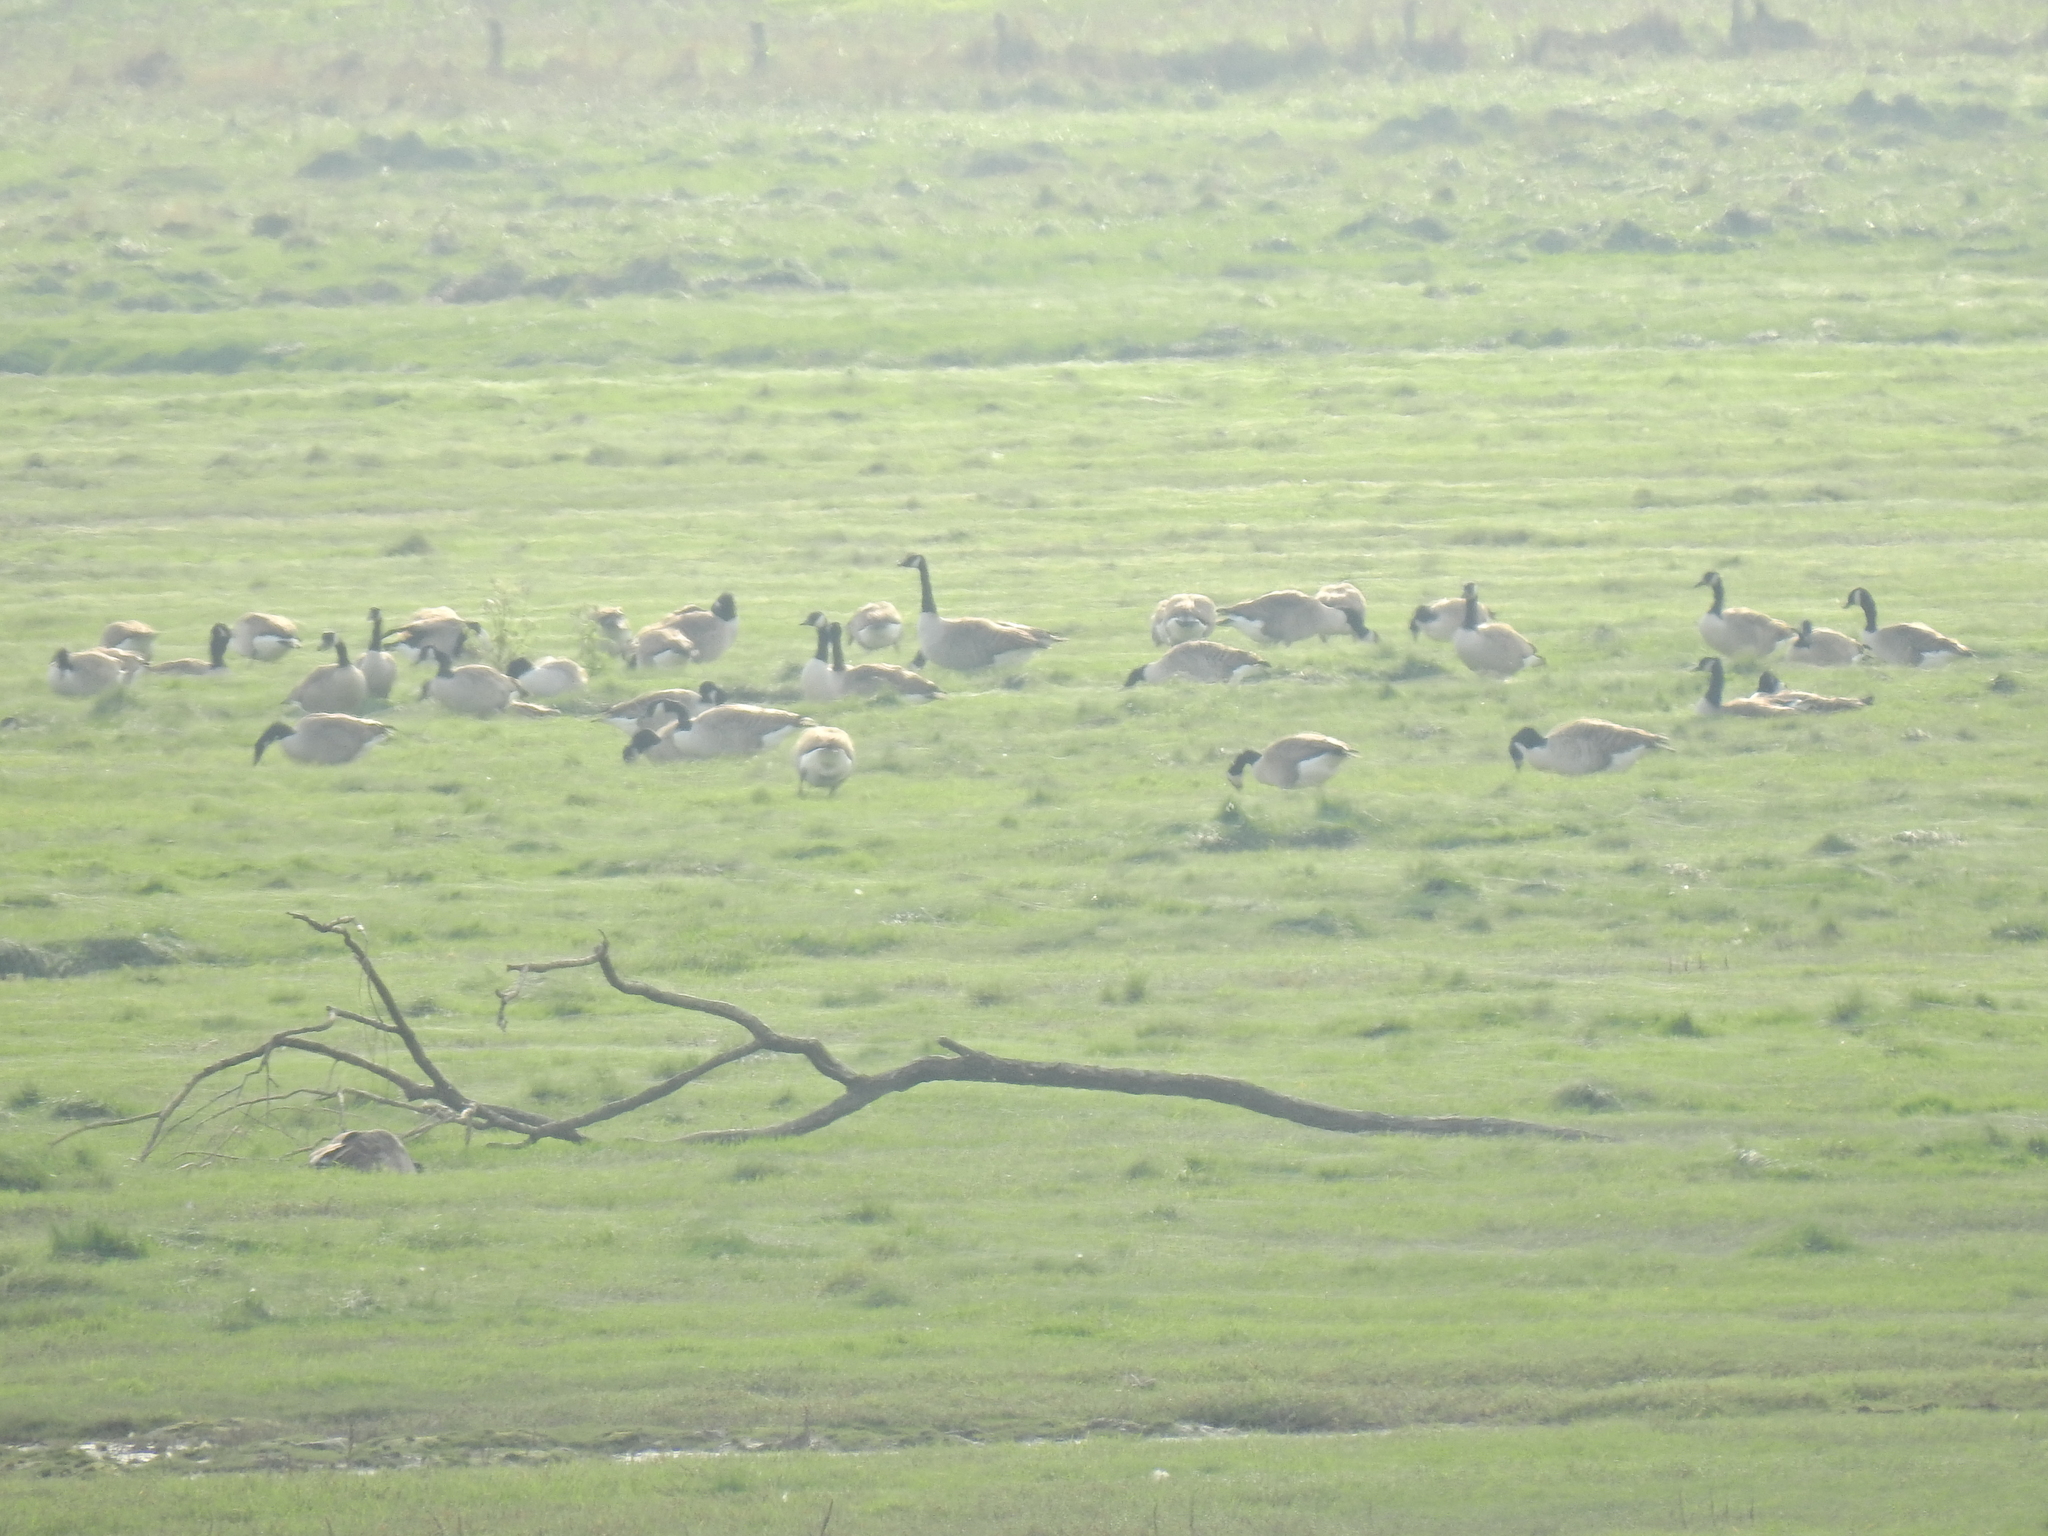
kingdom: Animalia
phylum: Chordata
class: Aves
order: Anseriformes
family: Anatidae
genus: Branta
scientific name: Branta canadensis
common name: Canada goose
